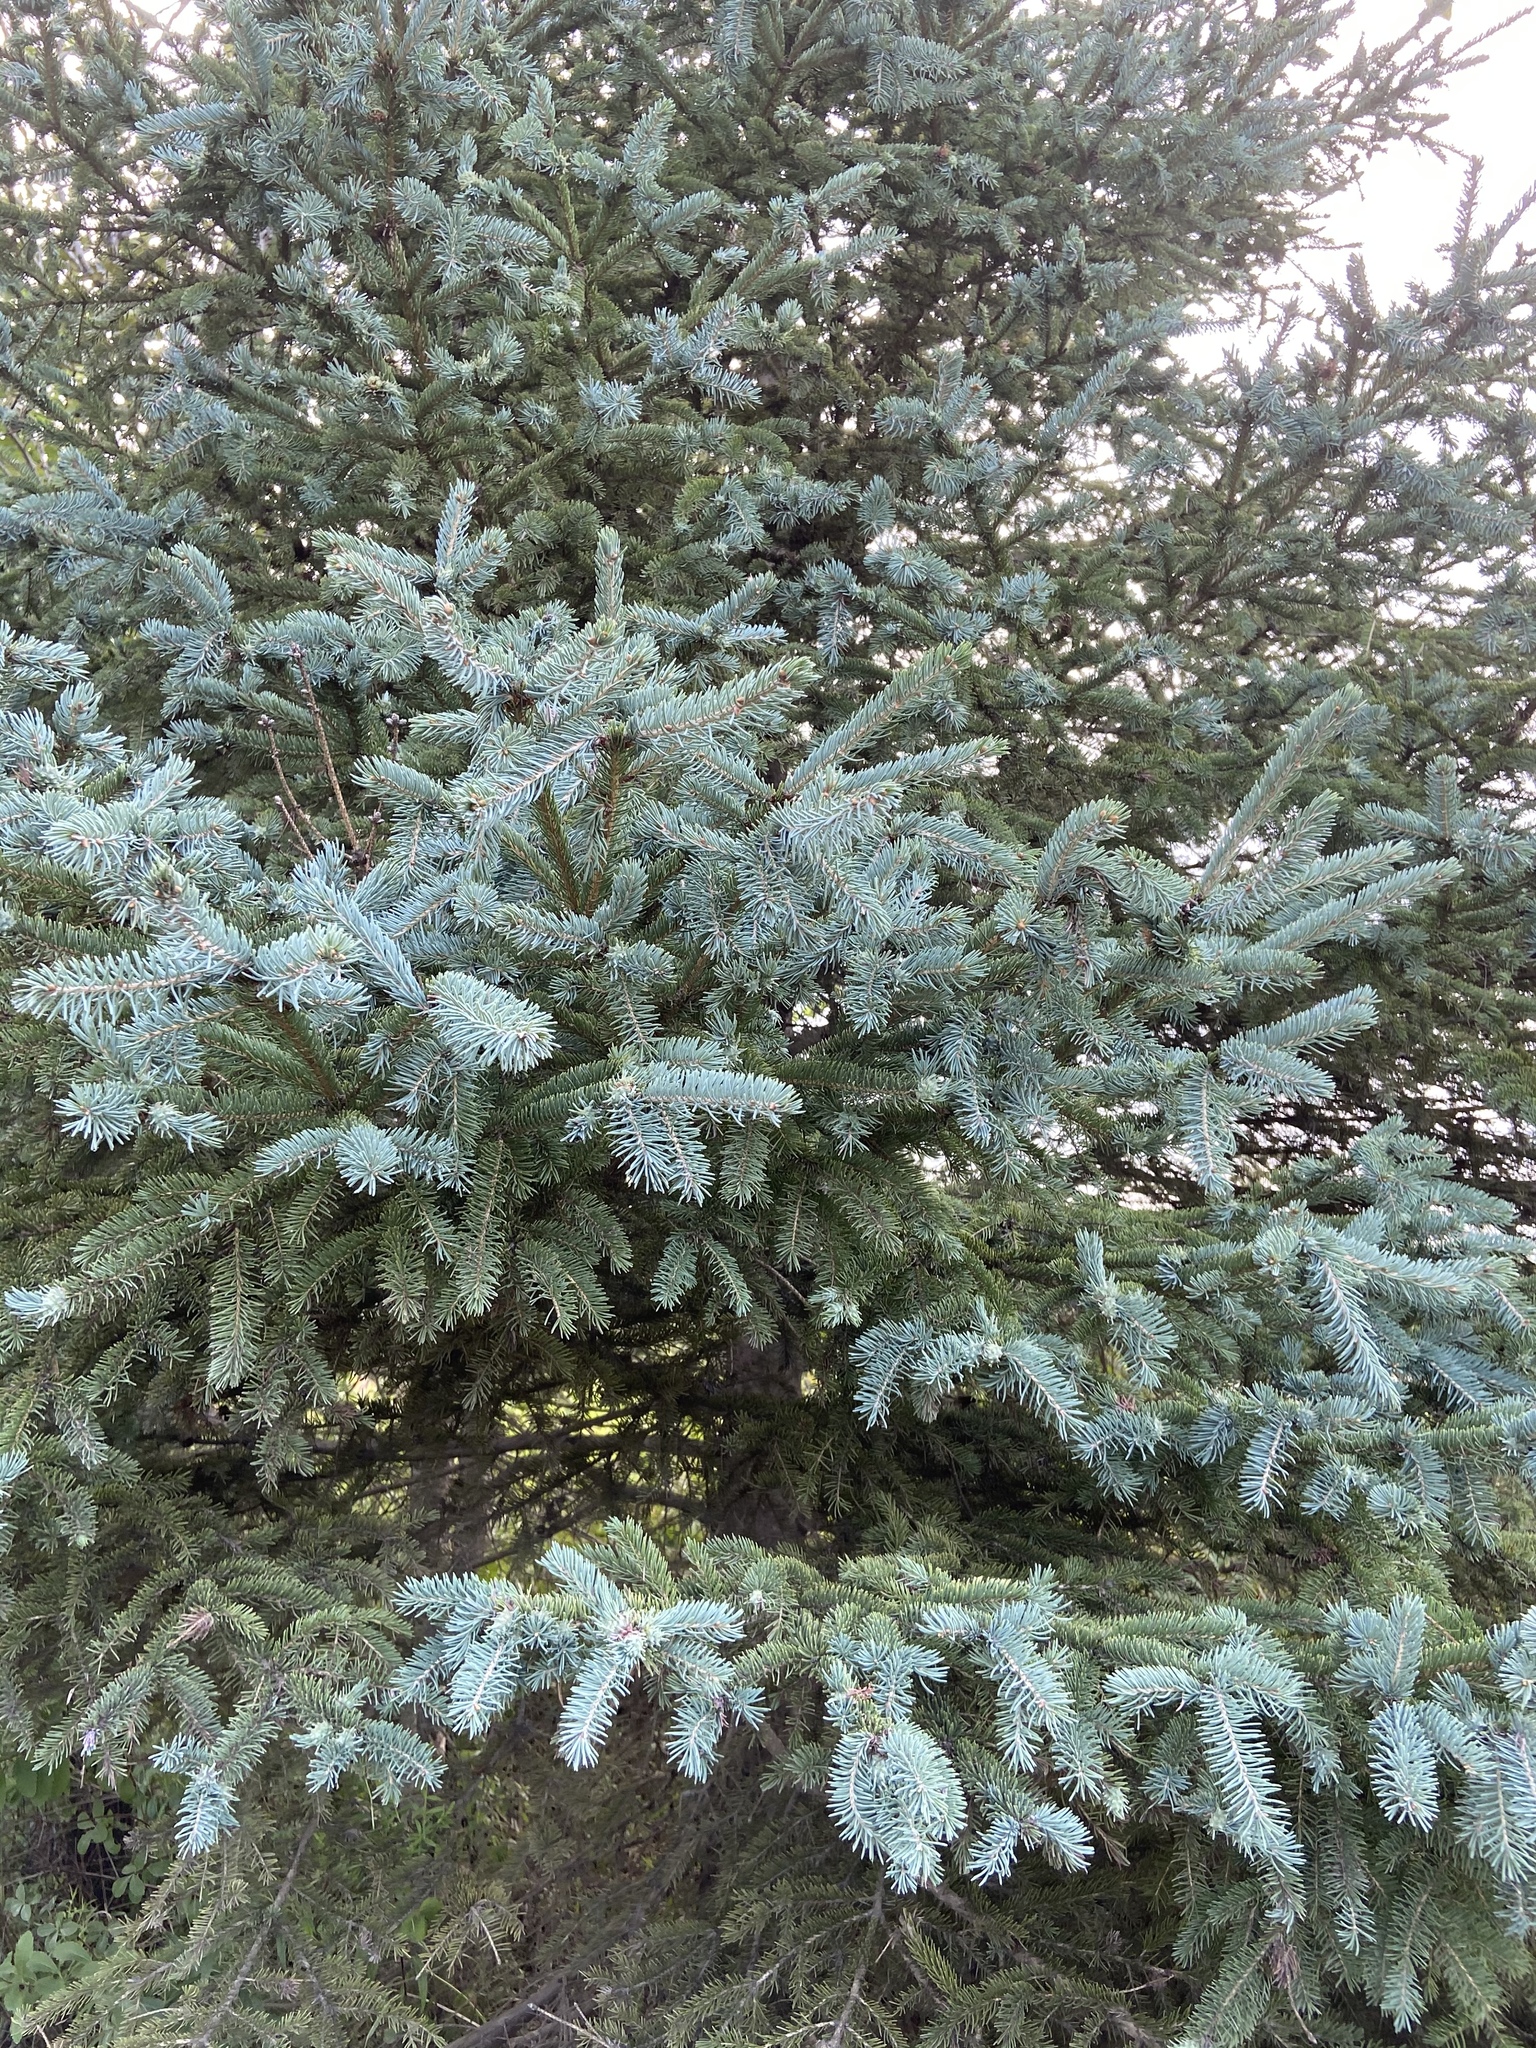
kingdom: Plantae
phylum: Tracheophyta
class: Pinopsida
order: Pinales
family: Pinaceae
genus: Picea
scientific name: Picea pungens
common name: Colorado spruce
